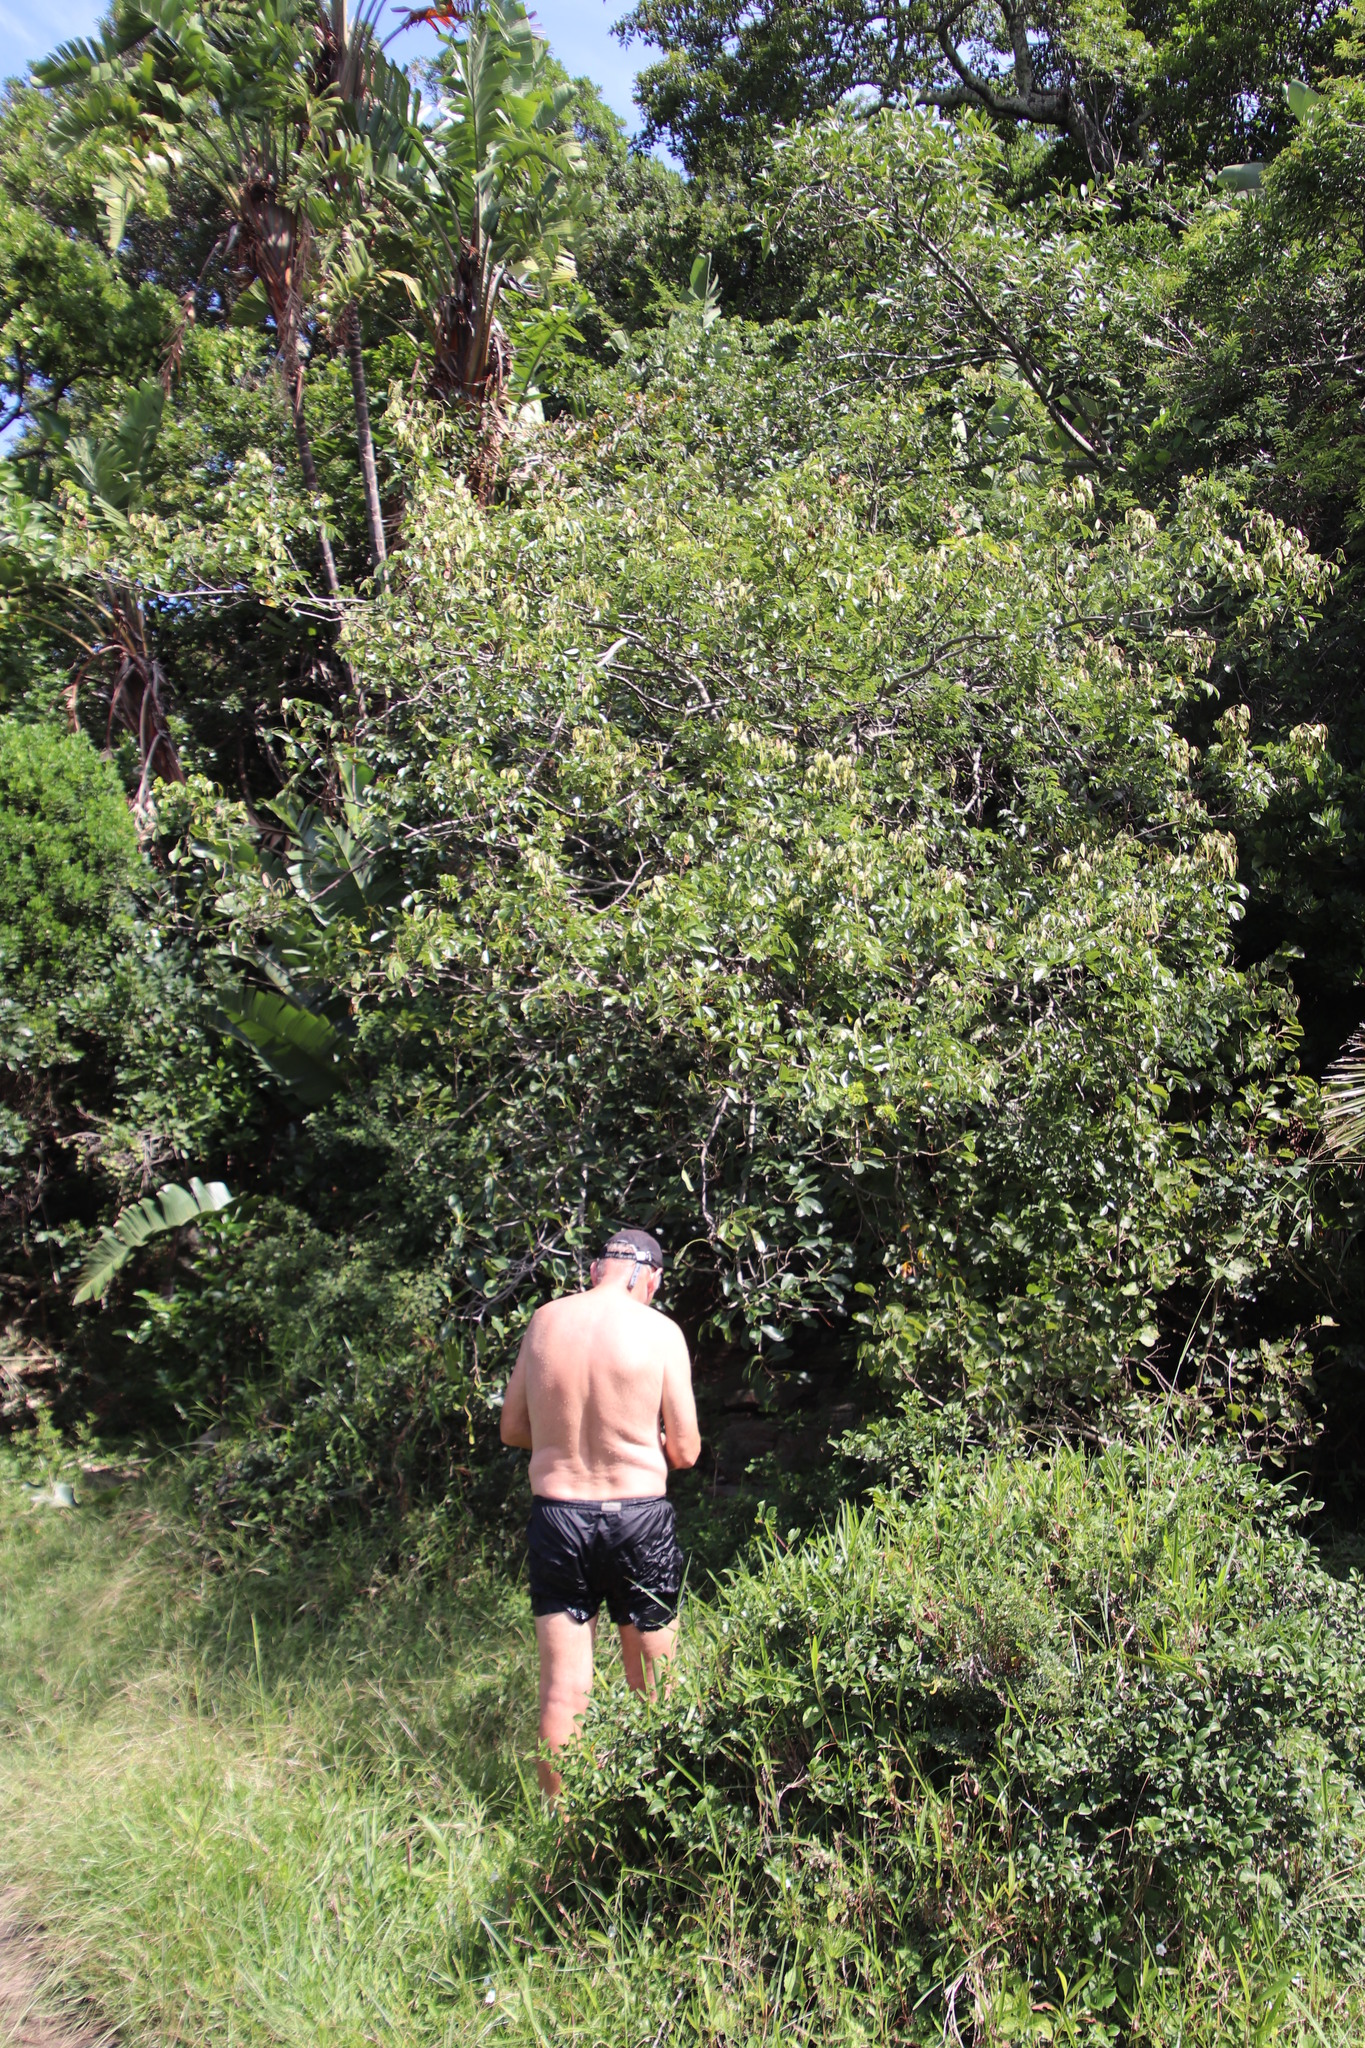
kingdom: Plantae
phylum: Tracheophyta
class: Magnoliopsida
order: Fabales
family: Fabaceae
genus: Dalbergia
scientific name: Dalbergia obovata
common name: Climbing flat-bean
